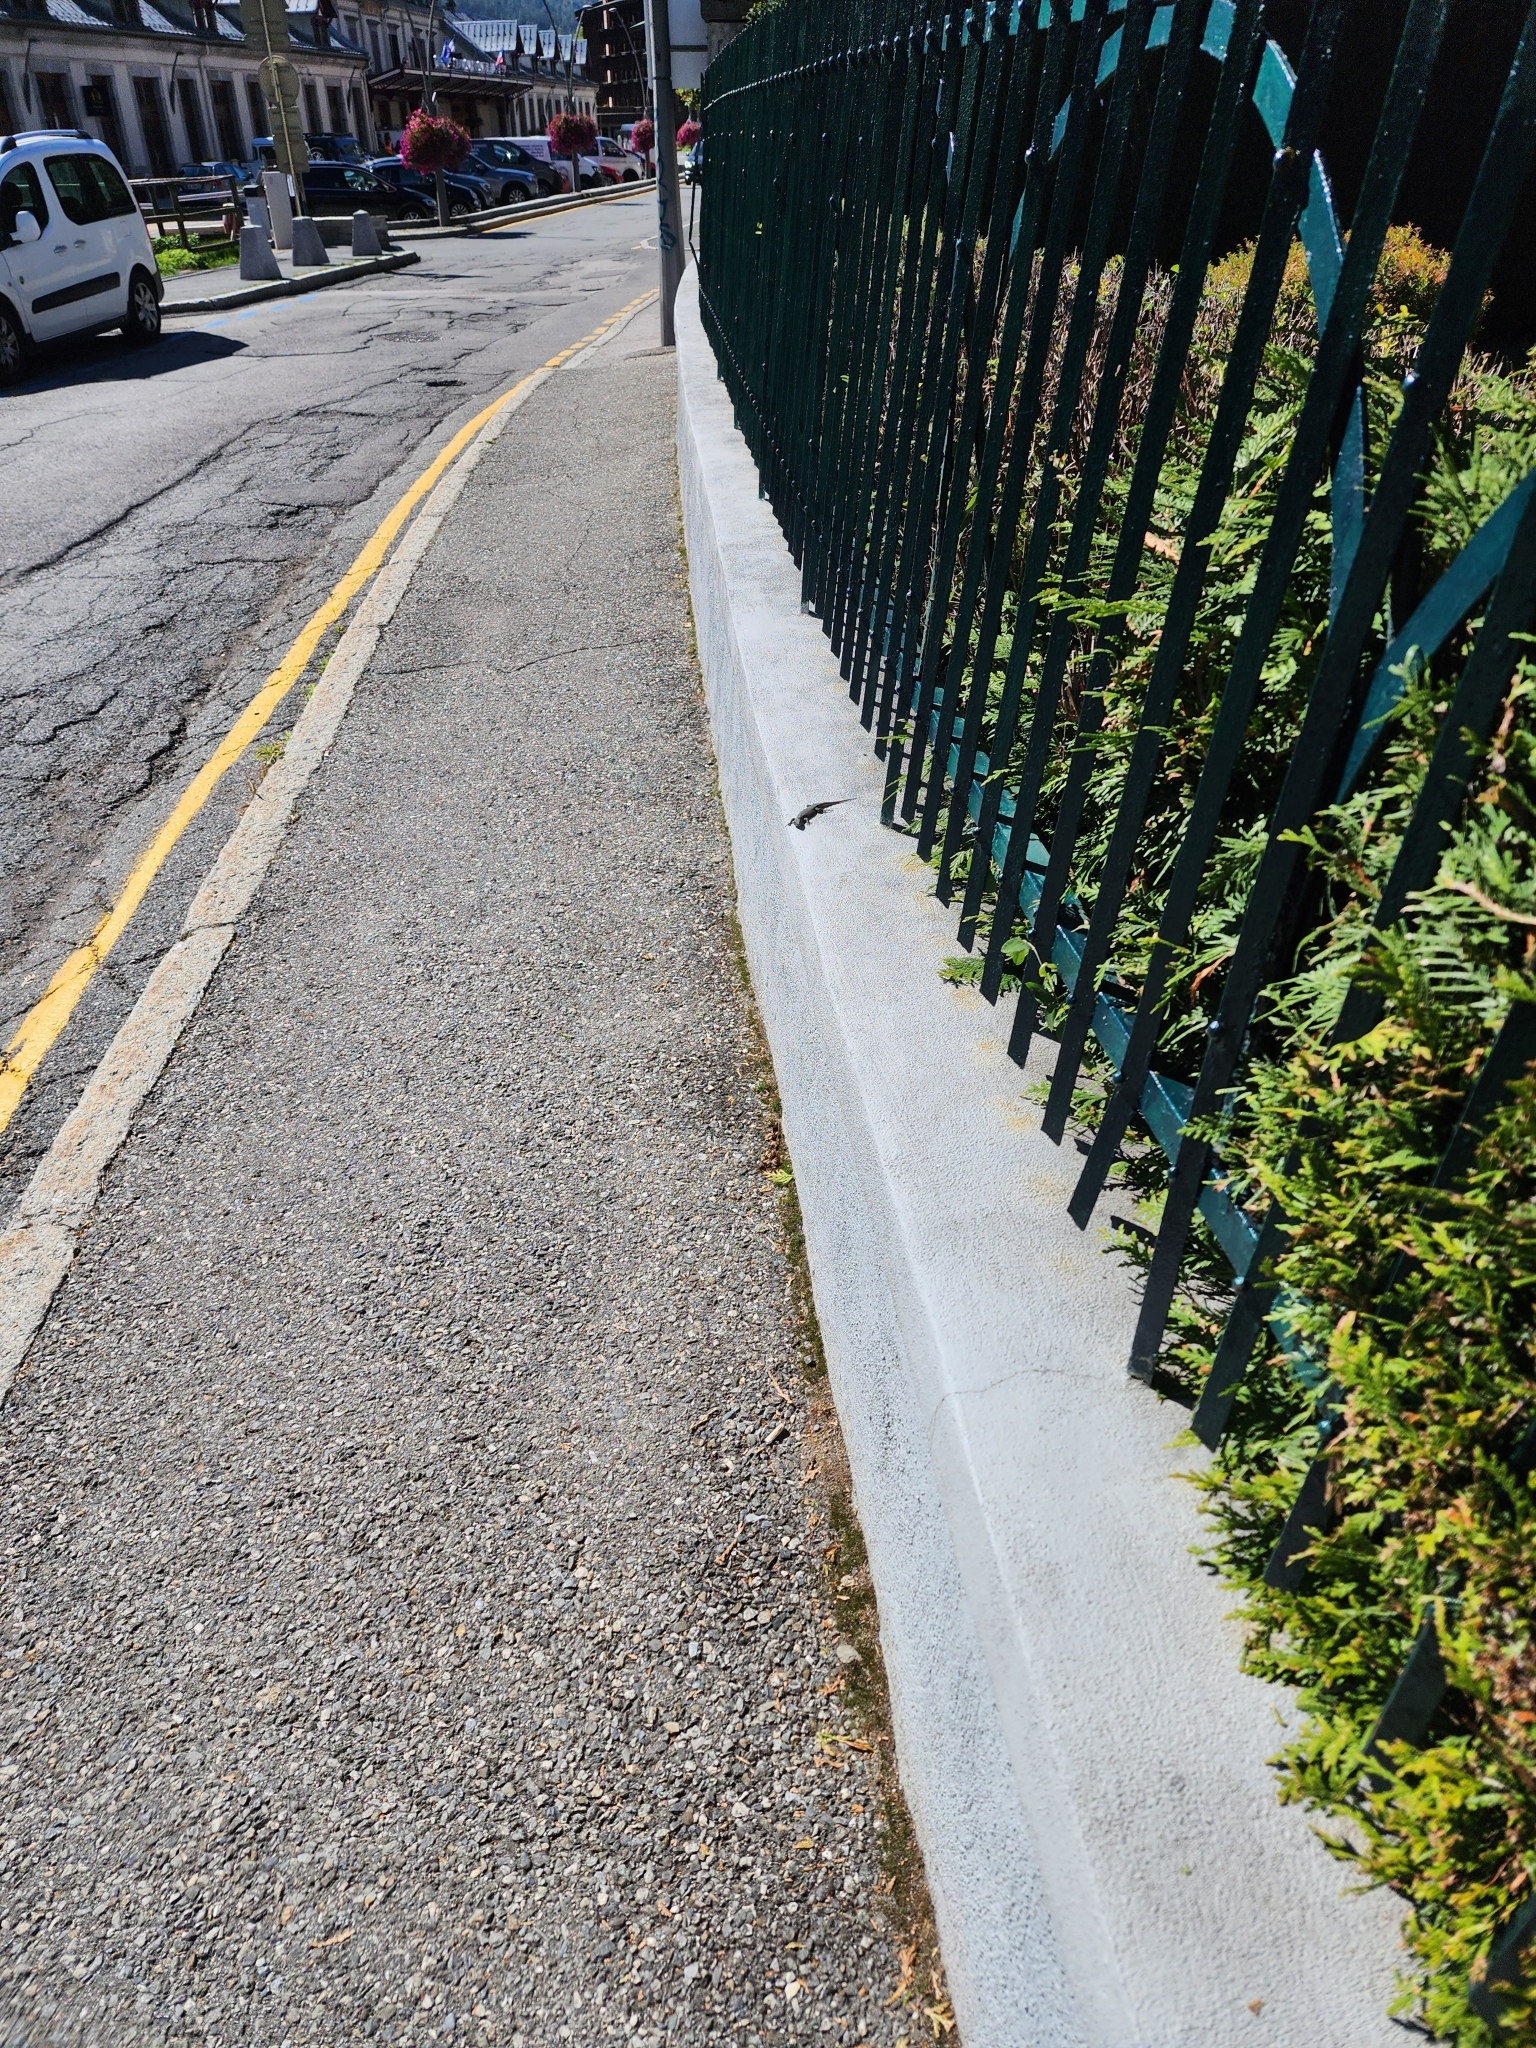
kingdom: Animalia
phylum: Chordata
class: Squamata
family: Lacertidae
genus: Podarcis
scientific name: Podarcis muralis
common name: Common wall lizard
